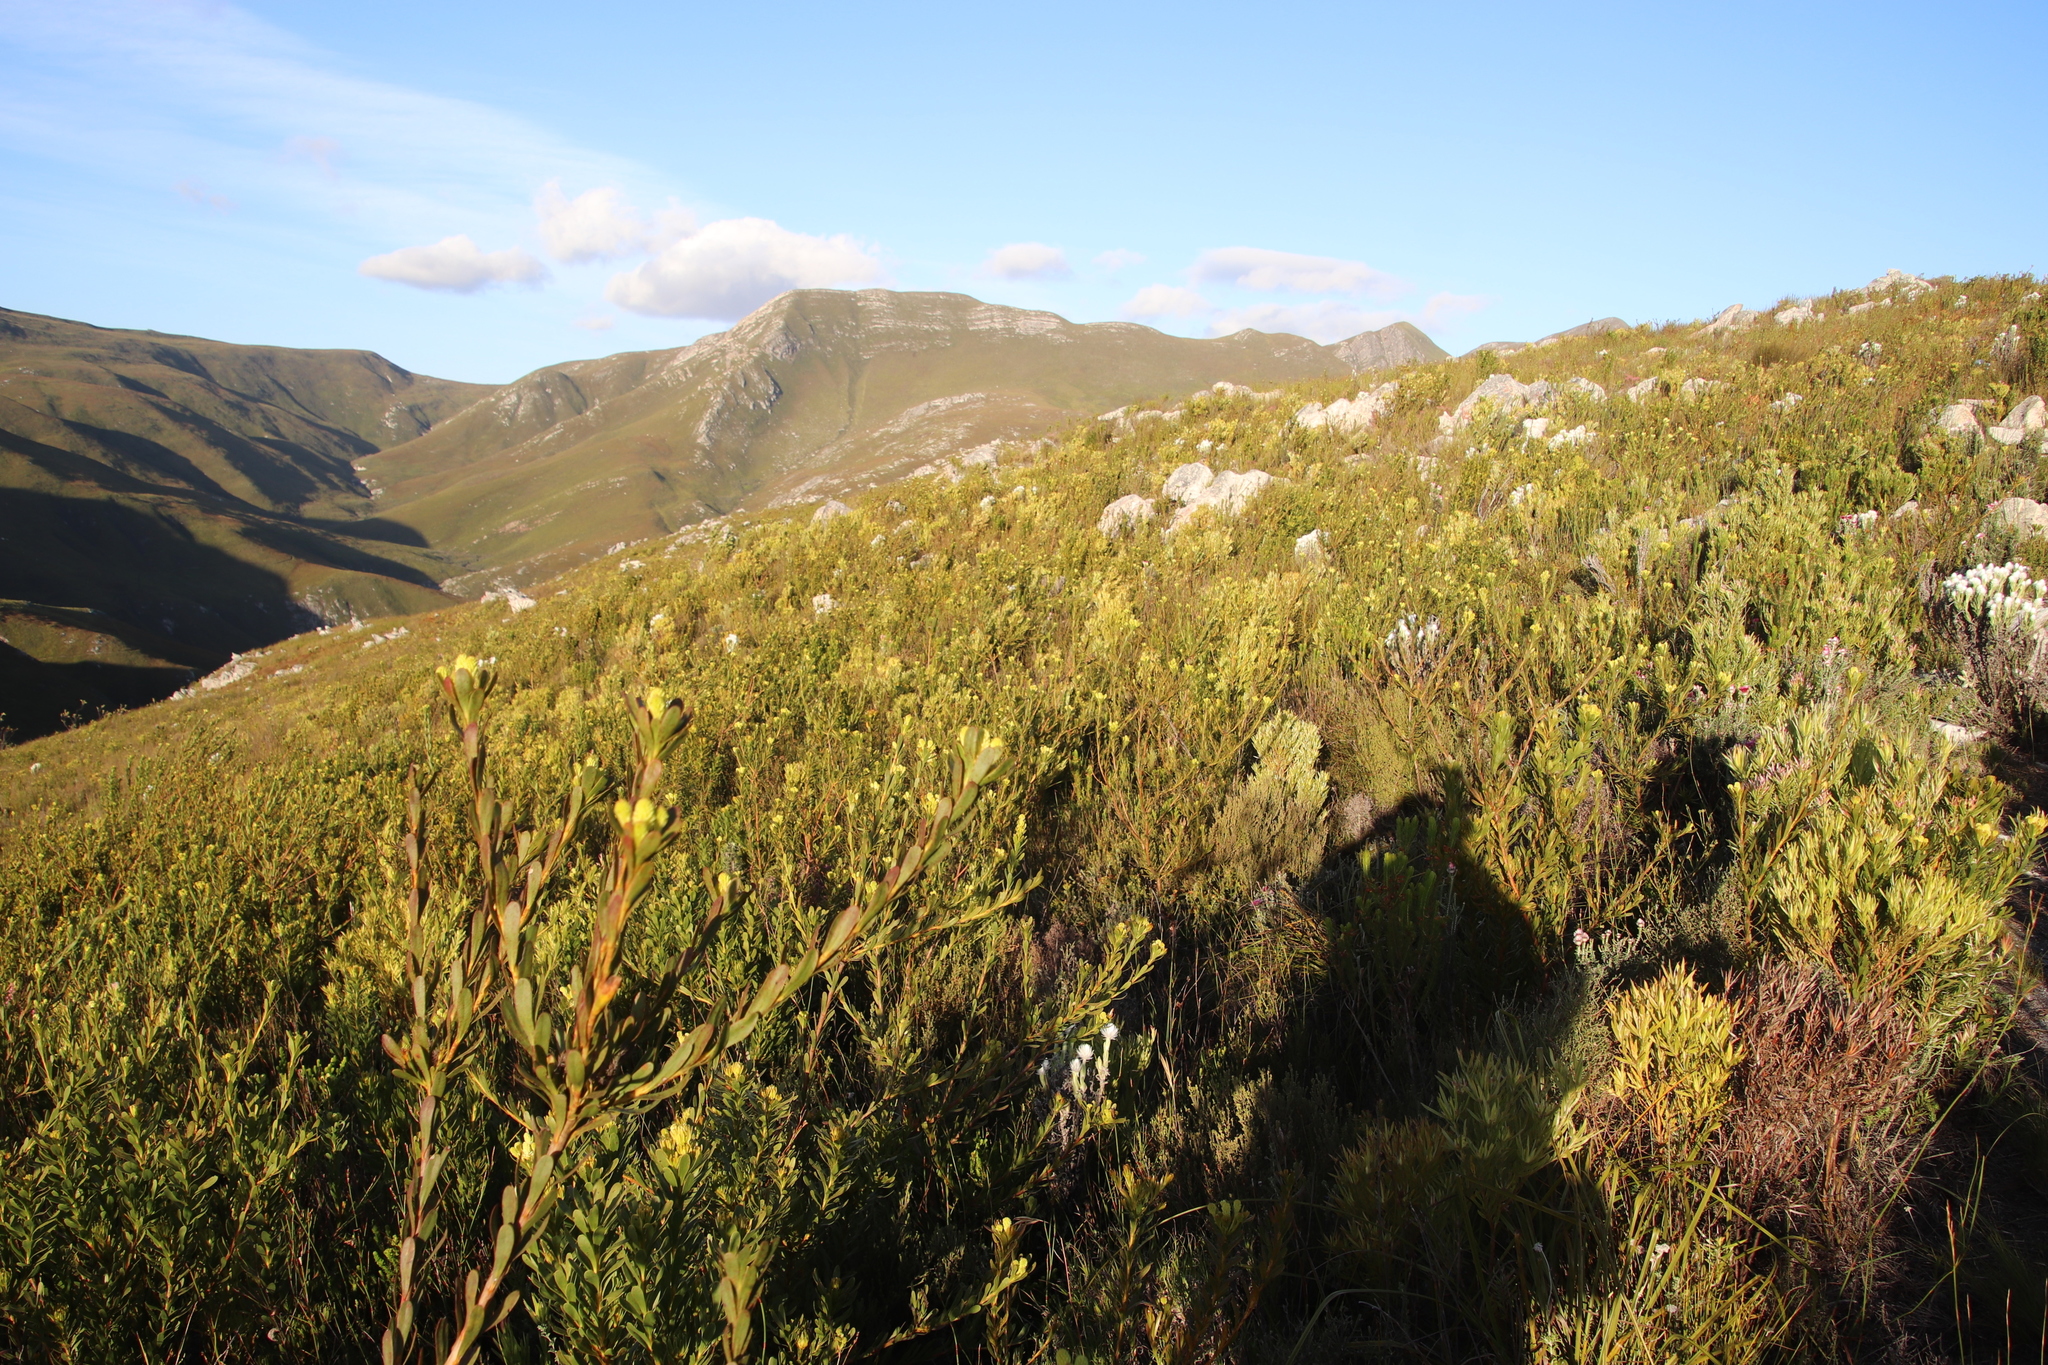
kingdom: Plantae
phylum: Tracheophyta
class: Magnoliopsida
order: Proteales
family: Proteaceae
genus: Aulax
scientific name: Aulax umbellata
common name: Broad-leaf featherbush
